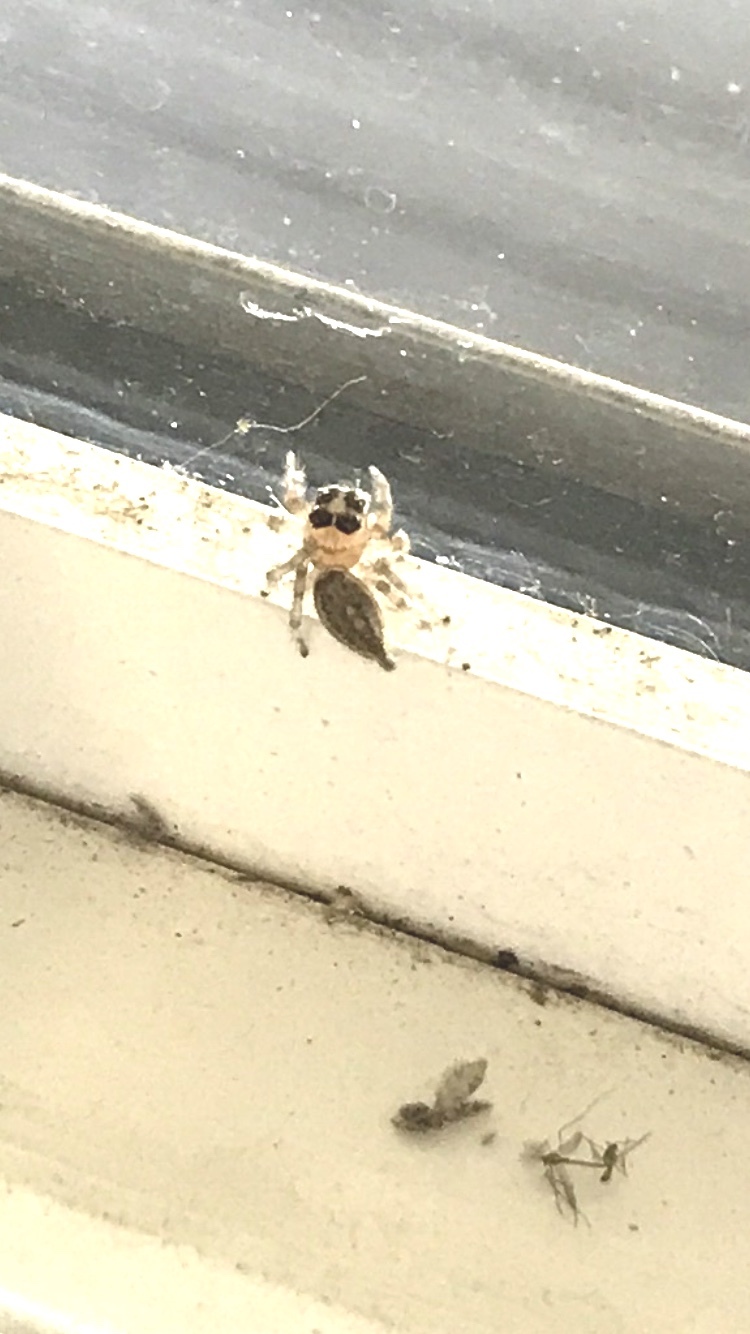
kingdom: Animalia
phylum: Arthropoda
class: Arachnida
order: Araneae
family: Salticidae
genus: Colonus
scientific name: Colonus hesperus
